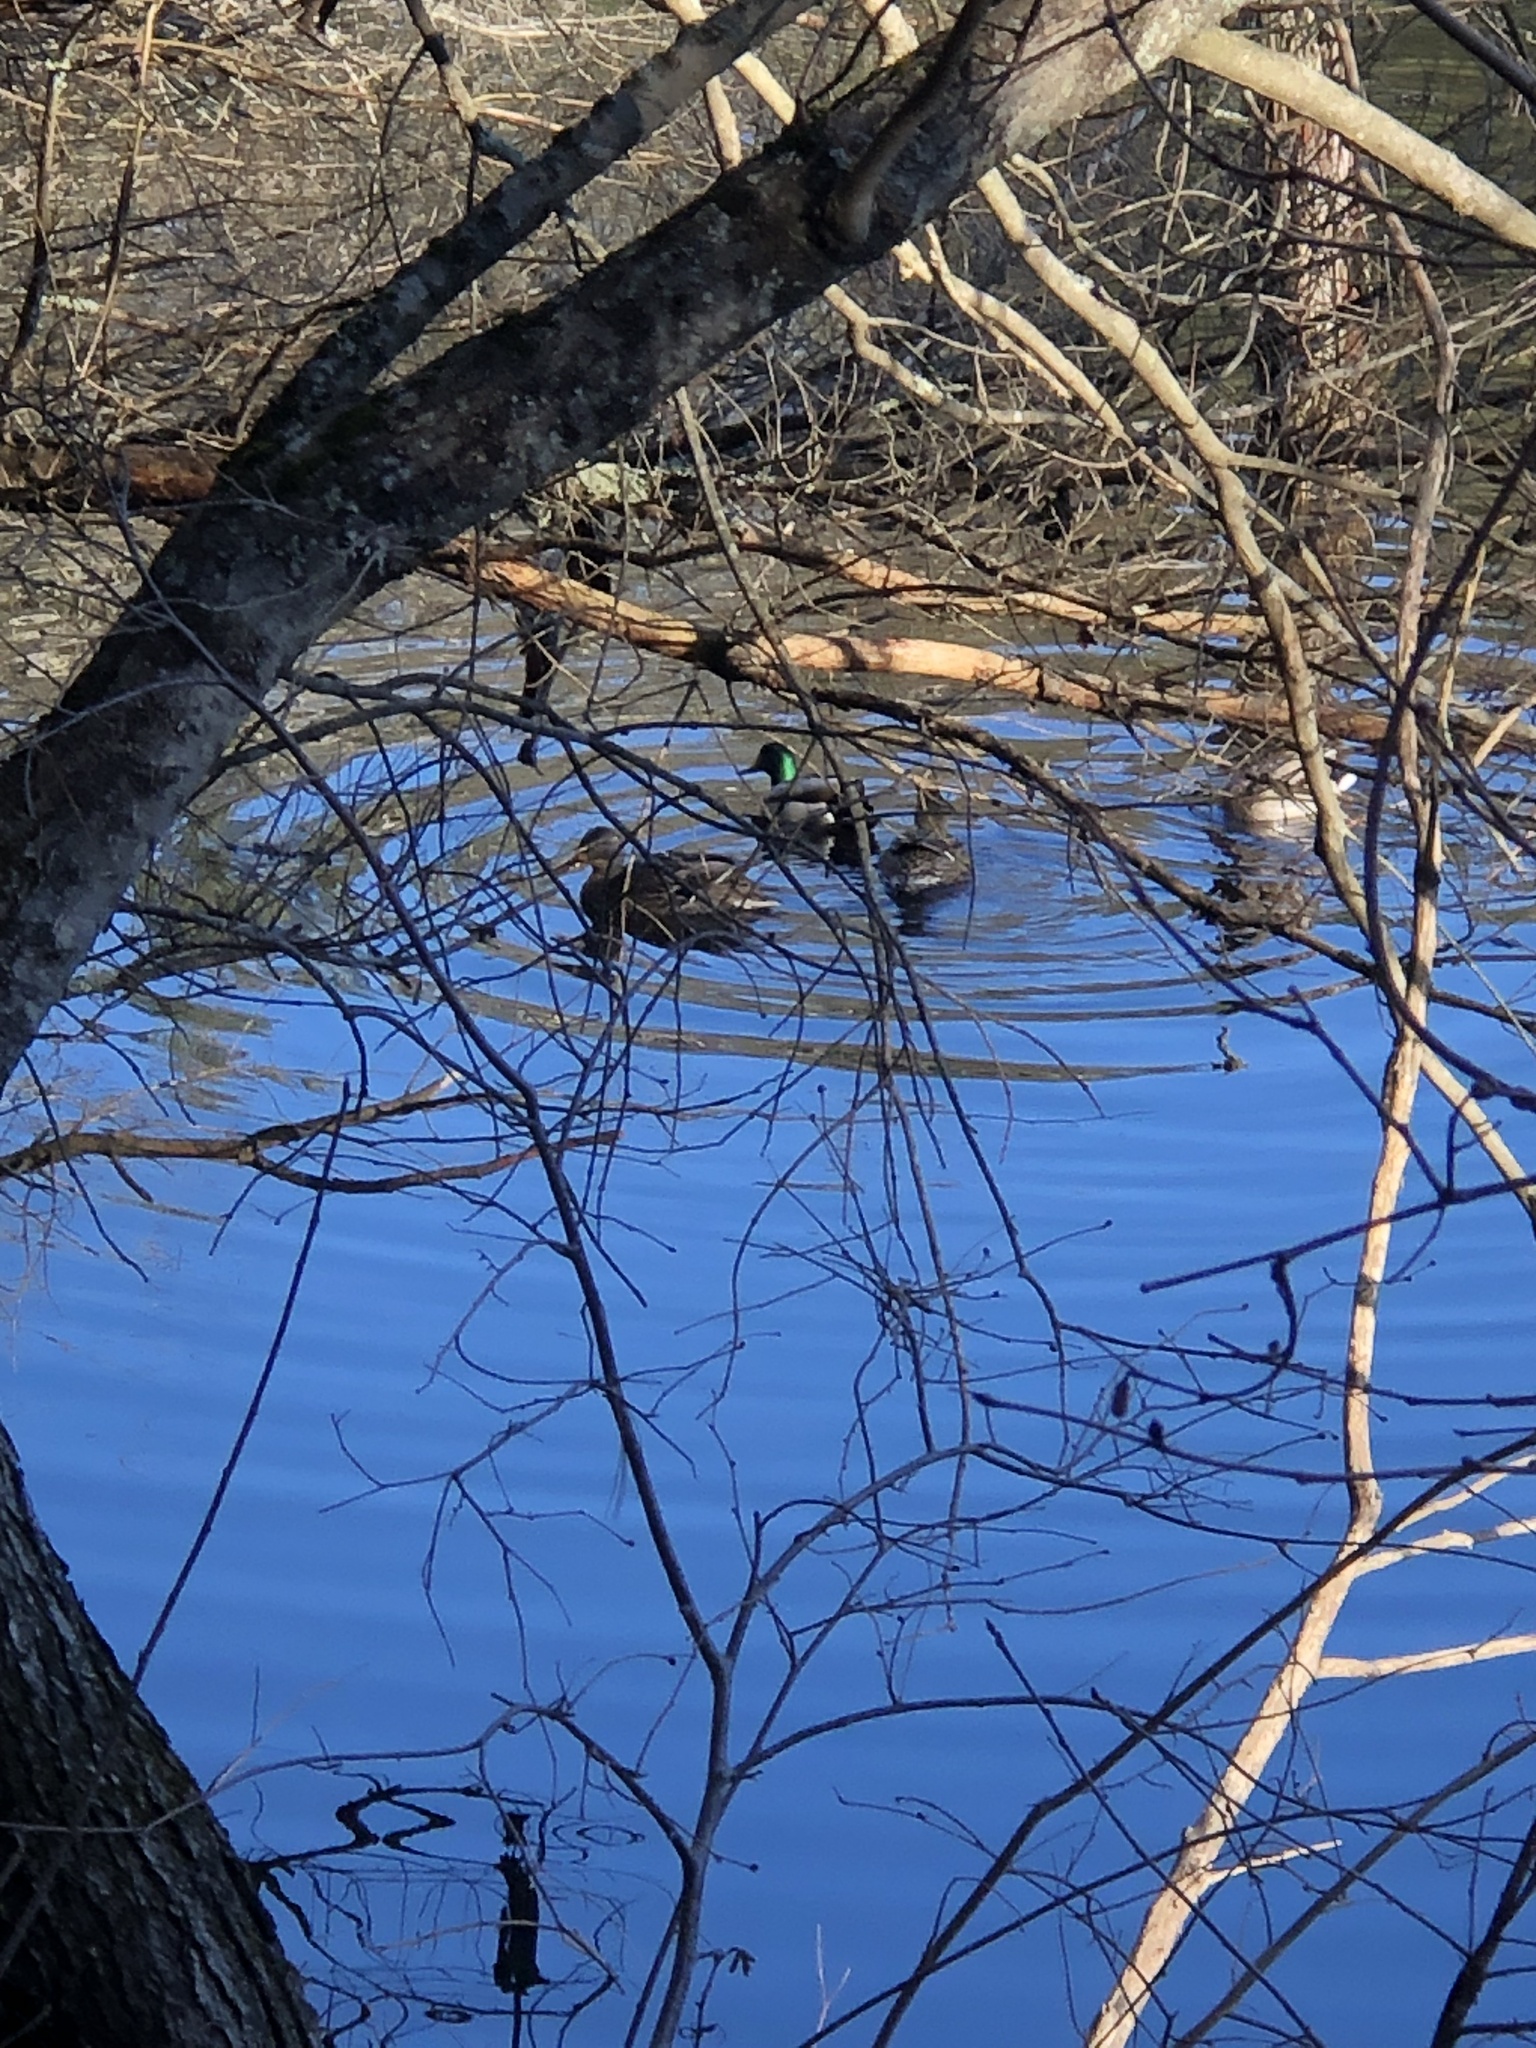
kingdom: Animalia
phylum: Chordata
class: Aves
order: Anseriformes
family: Anatidae
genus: Anas
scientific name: Anas platyrhynchos
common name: Mallard
